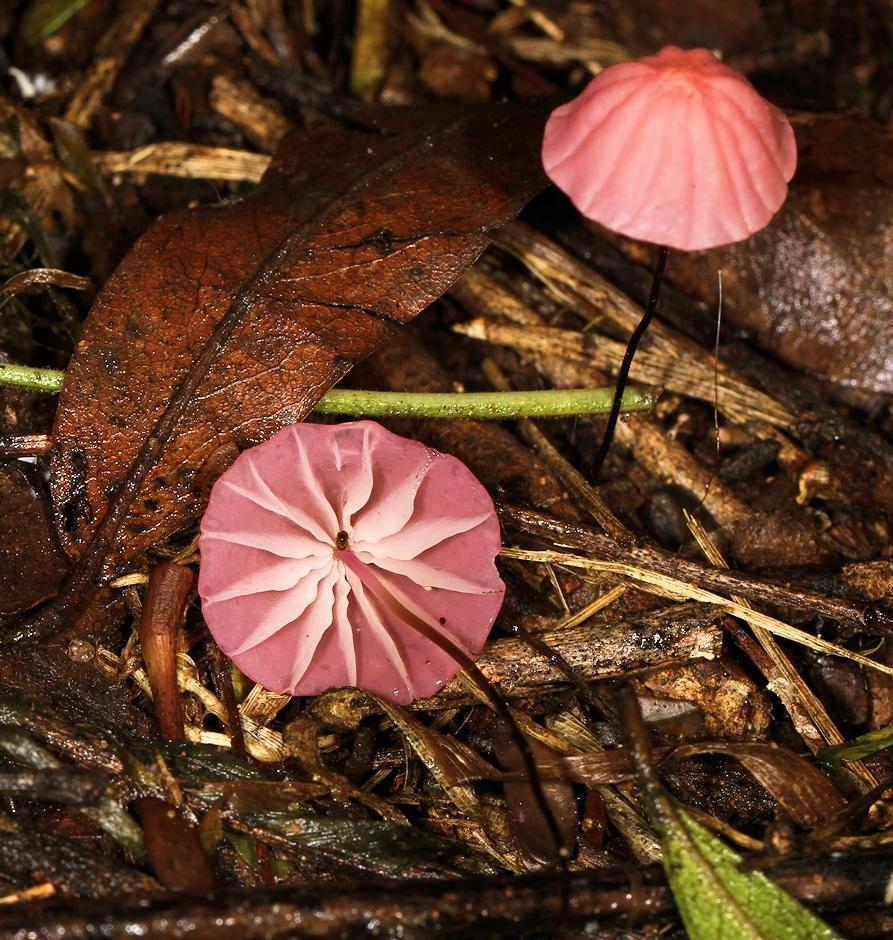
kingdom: Fungi
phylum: Basidiomycota
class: Agaricomycetes
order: Agaricales
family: Marasmiaceae
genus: Marasmius
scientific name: Marasmius haematocephalus
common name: Purple pinwheel
